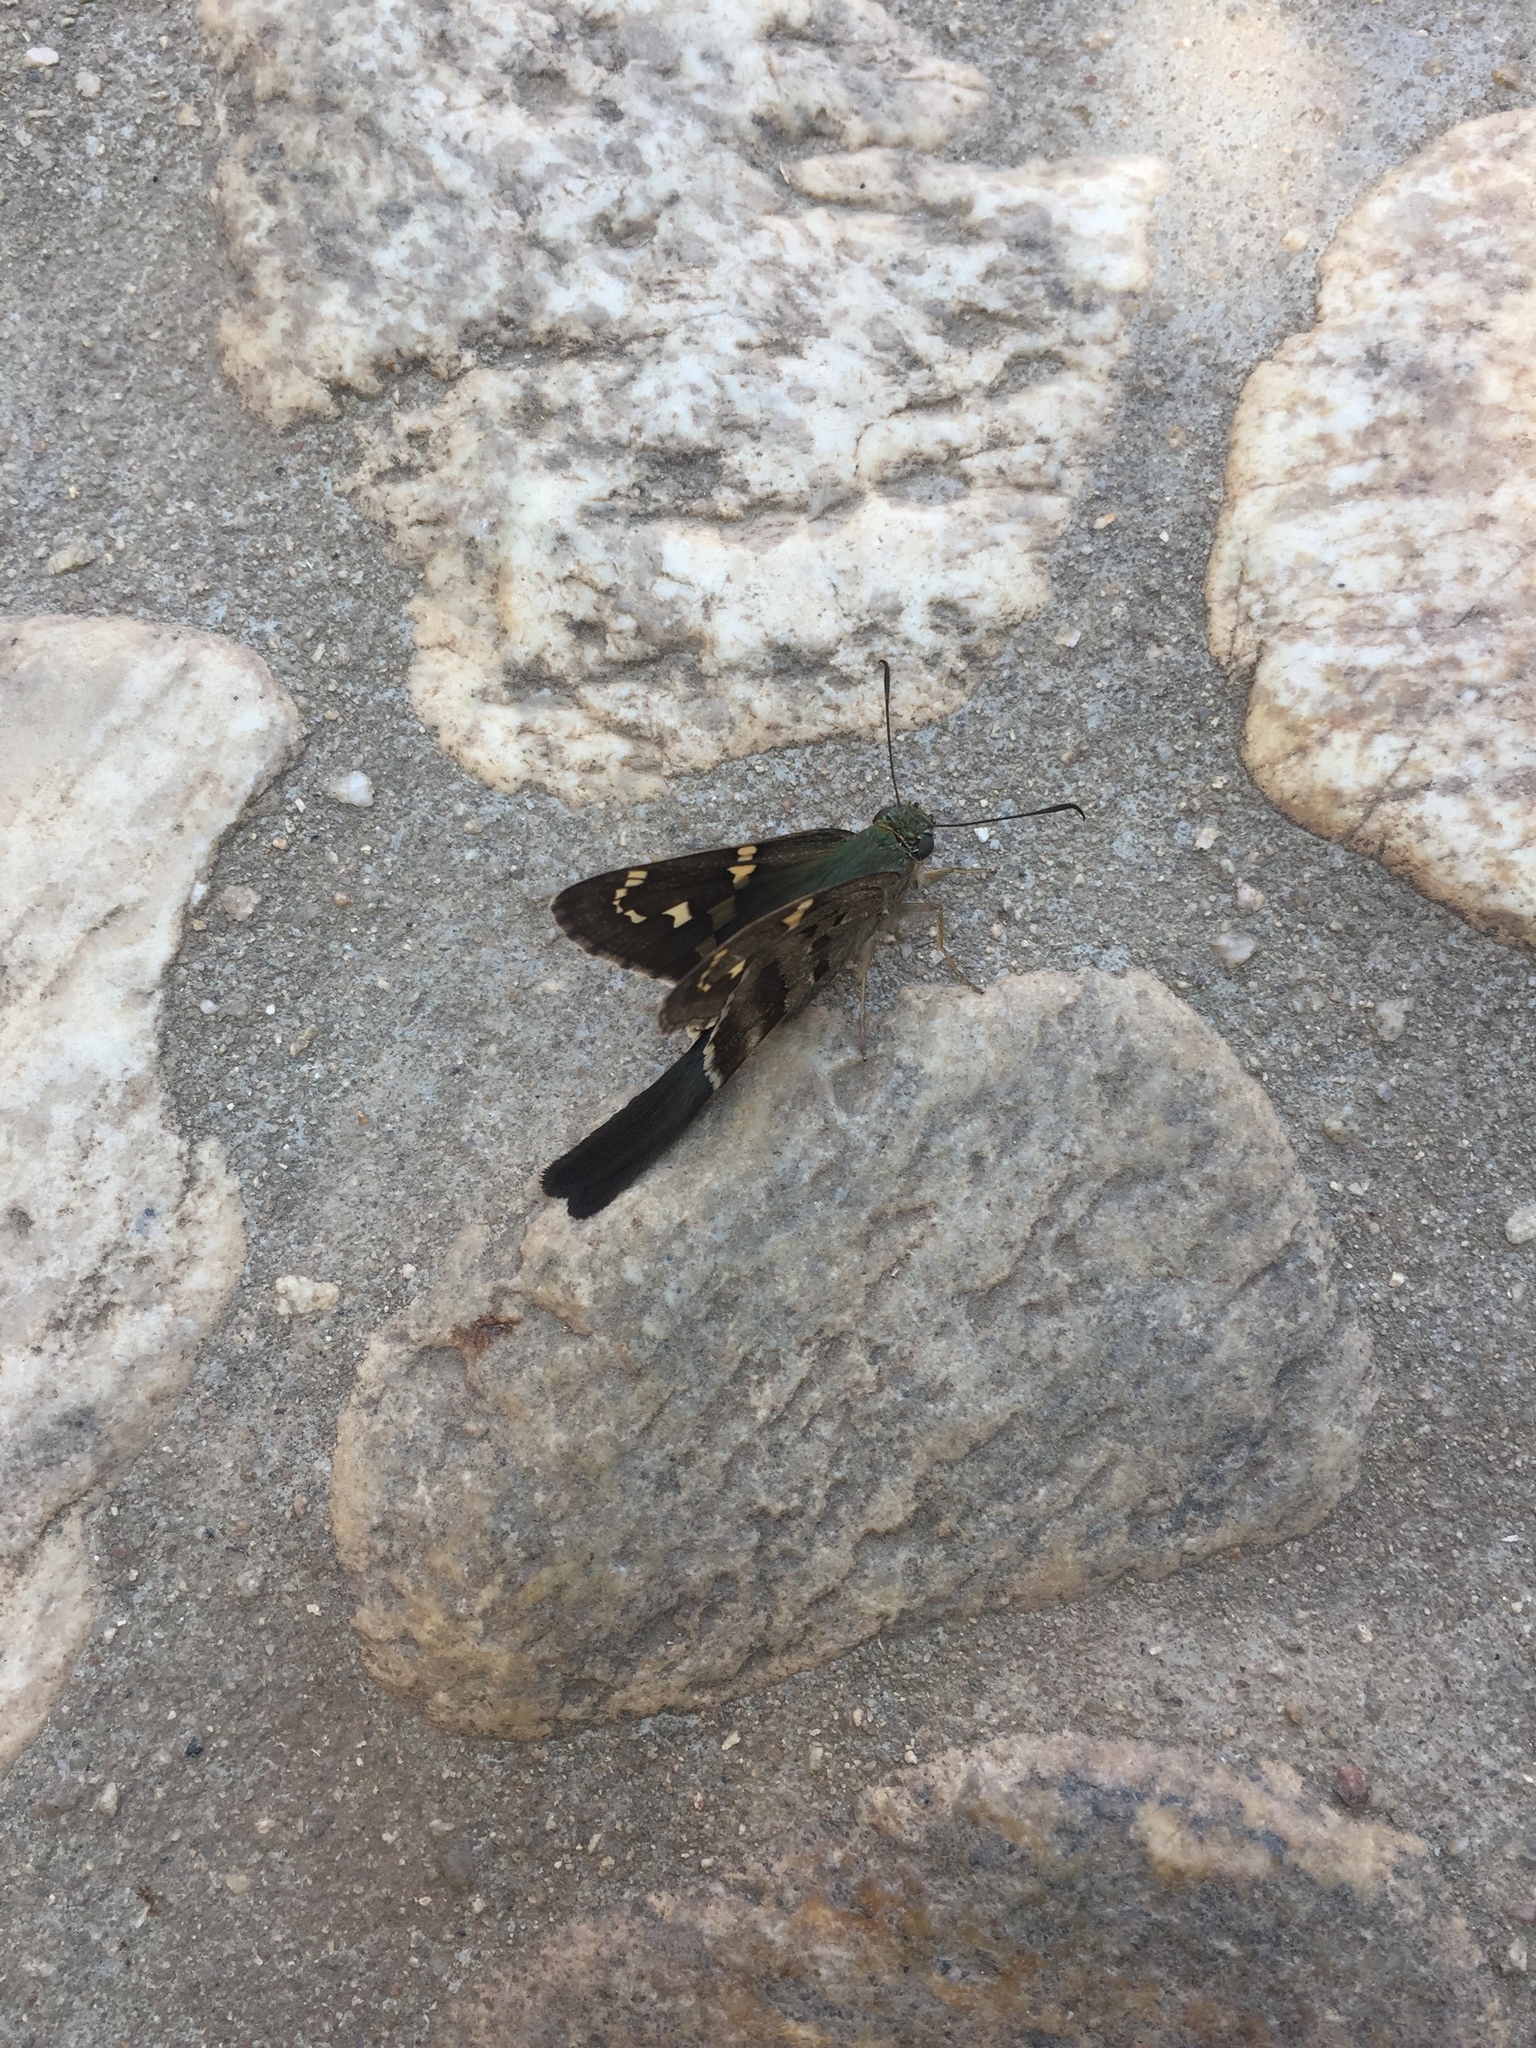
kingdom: Animalia
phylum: Arthropoda
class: Insecta
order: Lepidoptera
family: Hesperiidae
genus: Urbanus
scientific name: Urbanus proteus
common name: Long-tailed skipper
